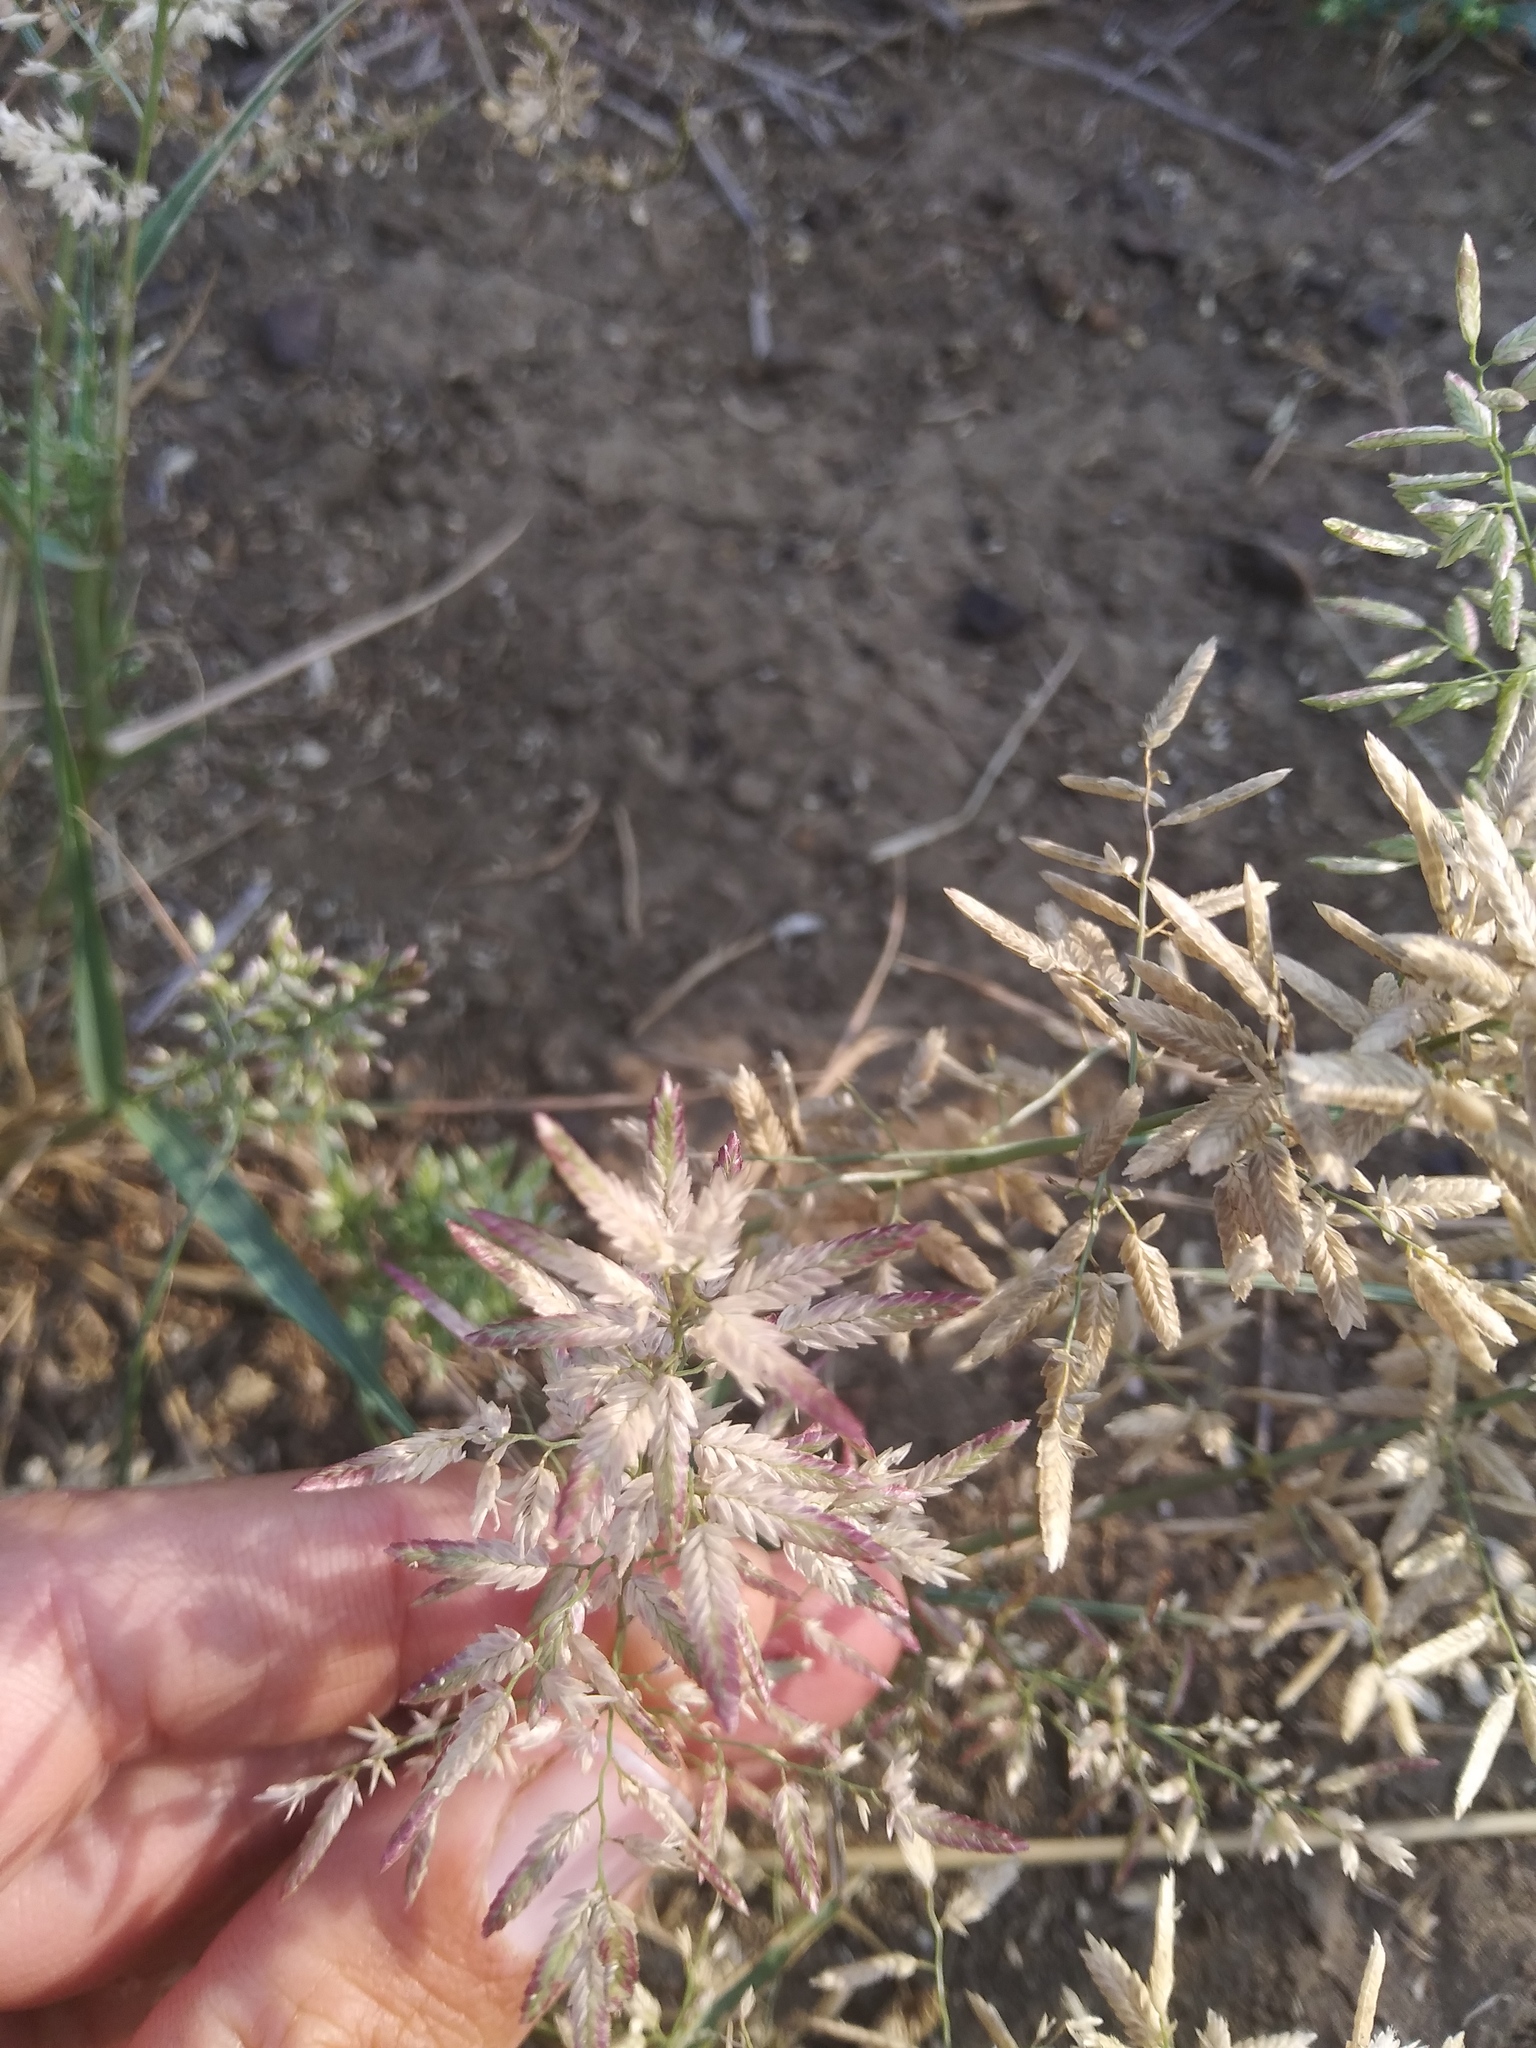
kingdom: Plantae
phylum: Tracheophyta
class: Liliopsida
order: Poales
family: Poaceae
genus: Eragrostis
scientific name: Eragrostis cilianensis
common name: Stinkgrass
